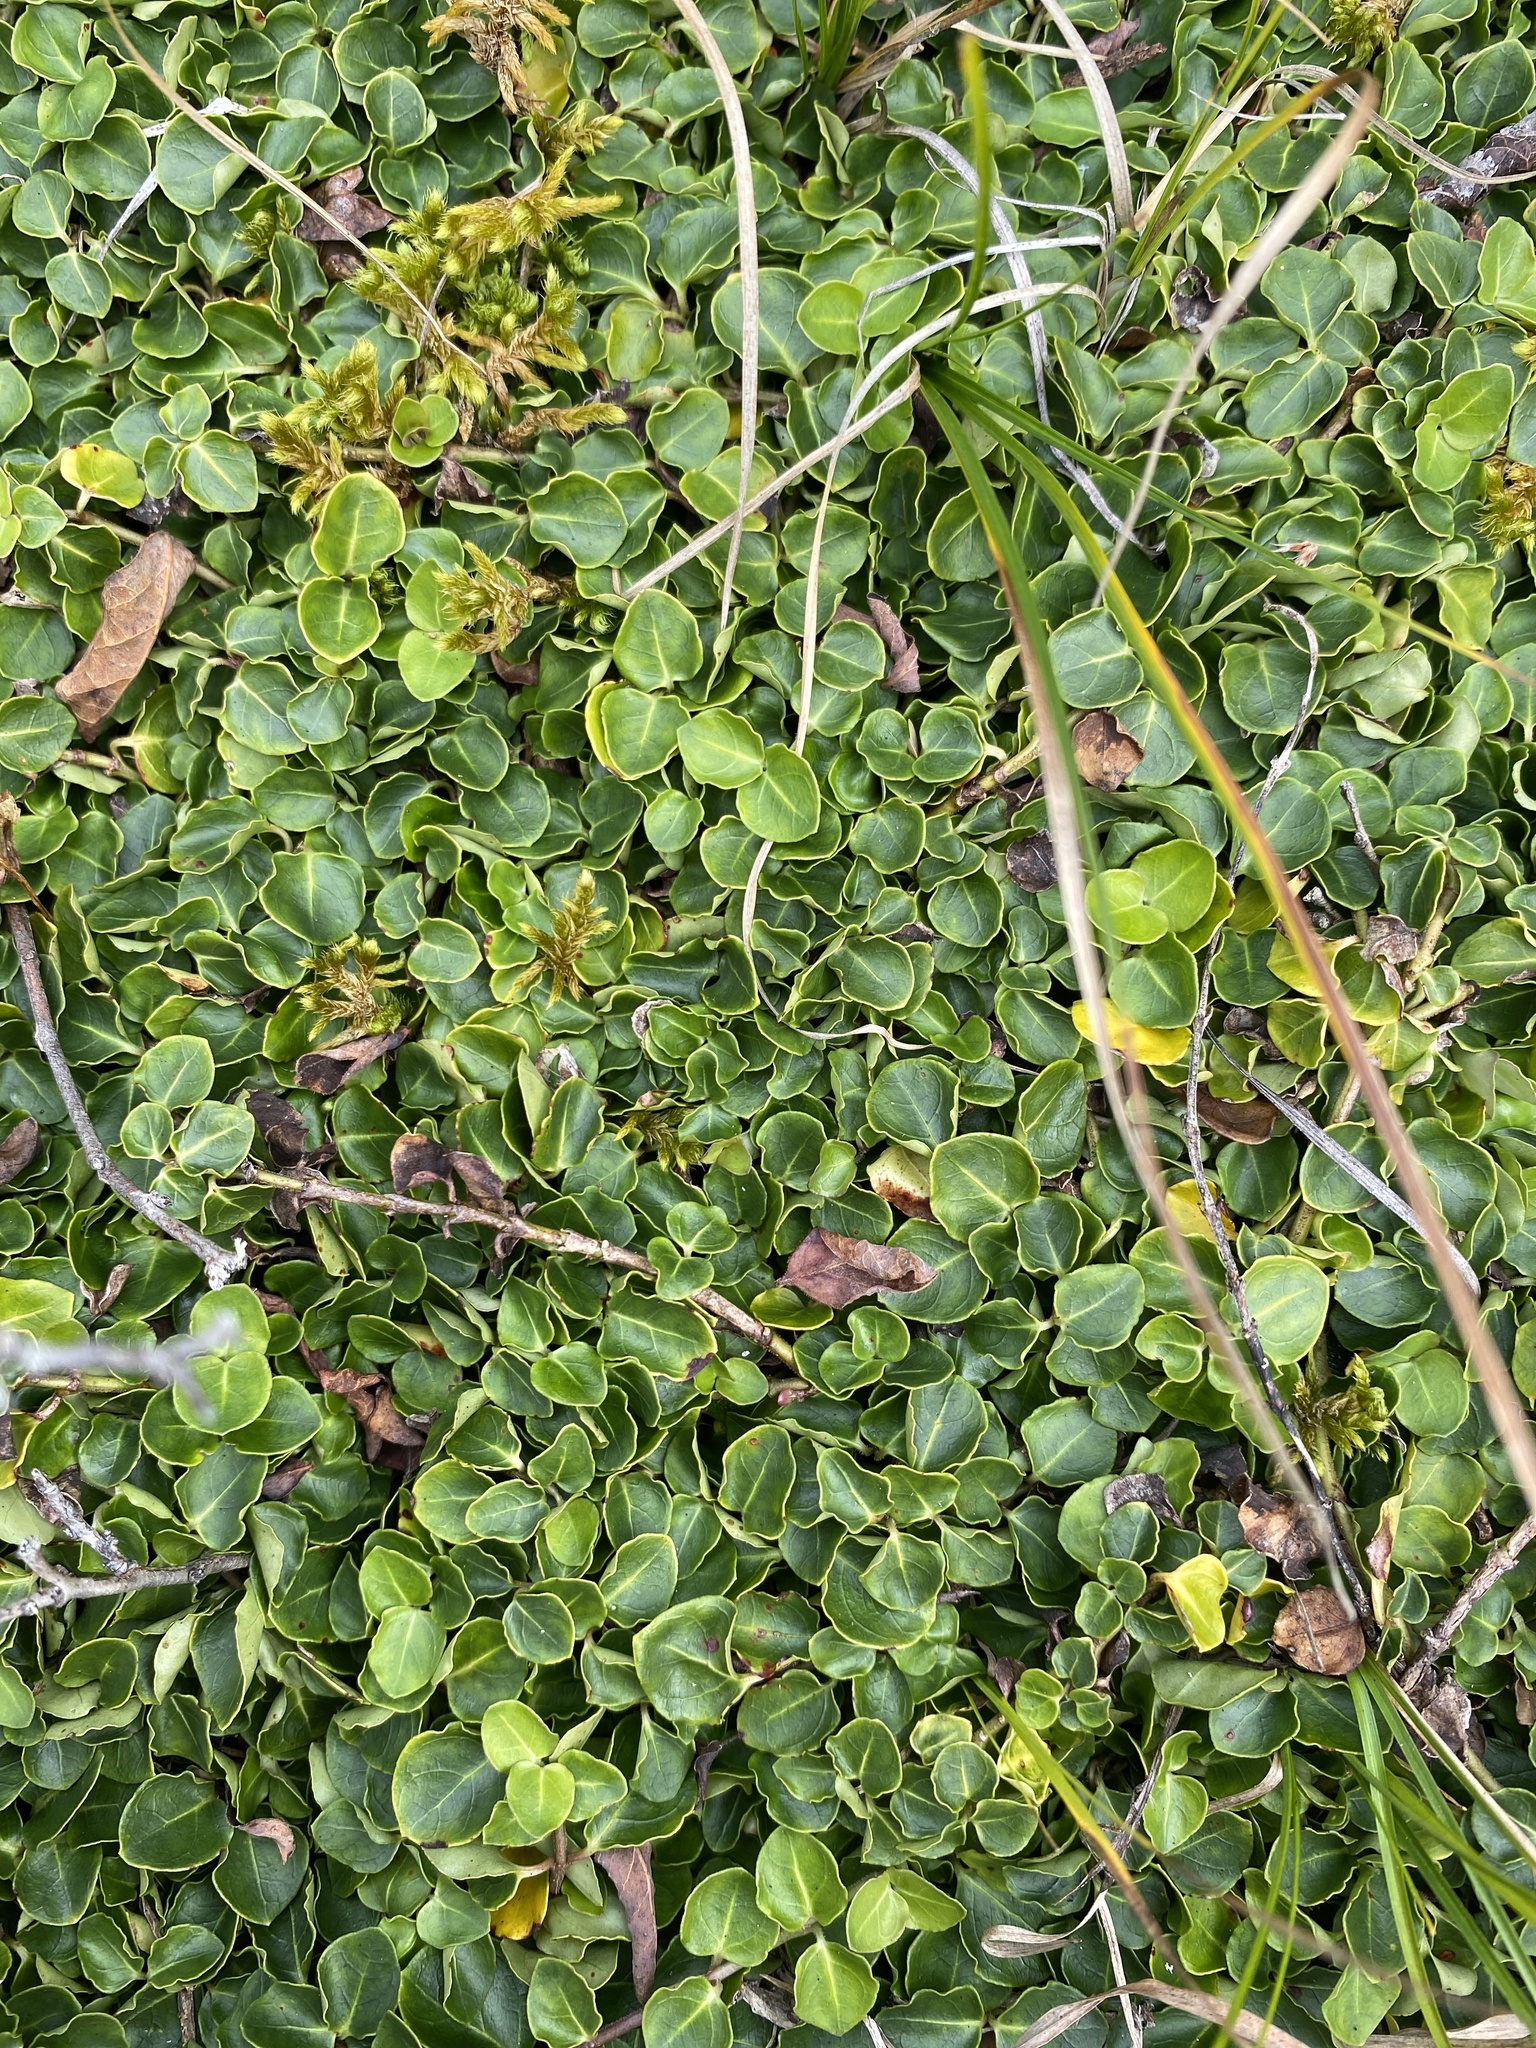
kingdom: Plantae
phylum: Tracheophyta
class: Magnoliopsida
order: Gentianales
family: Rubiaceae
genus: Mitchella
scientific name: Mitchella repens
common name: Partridge-berry
